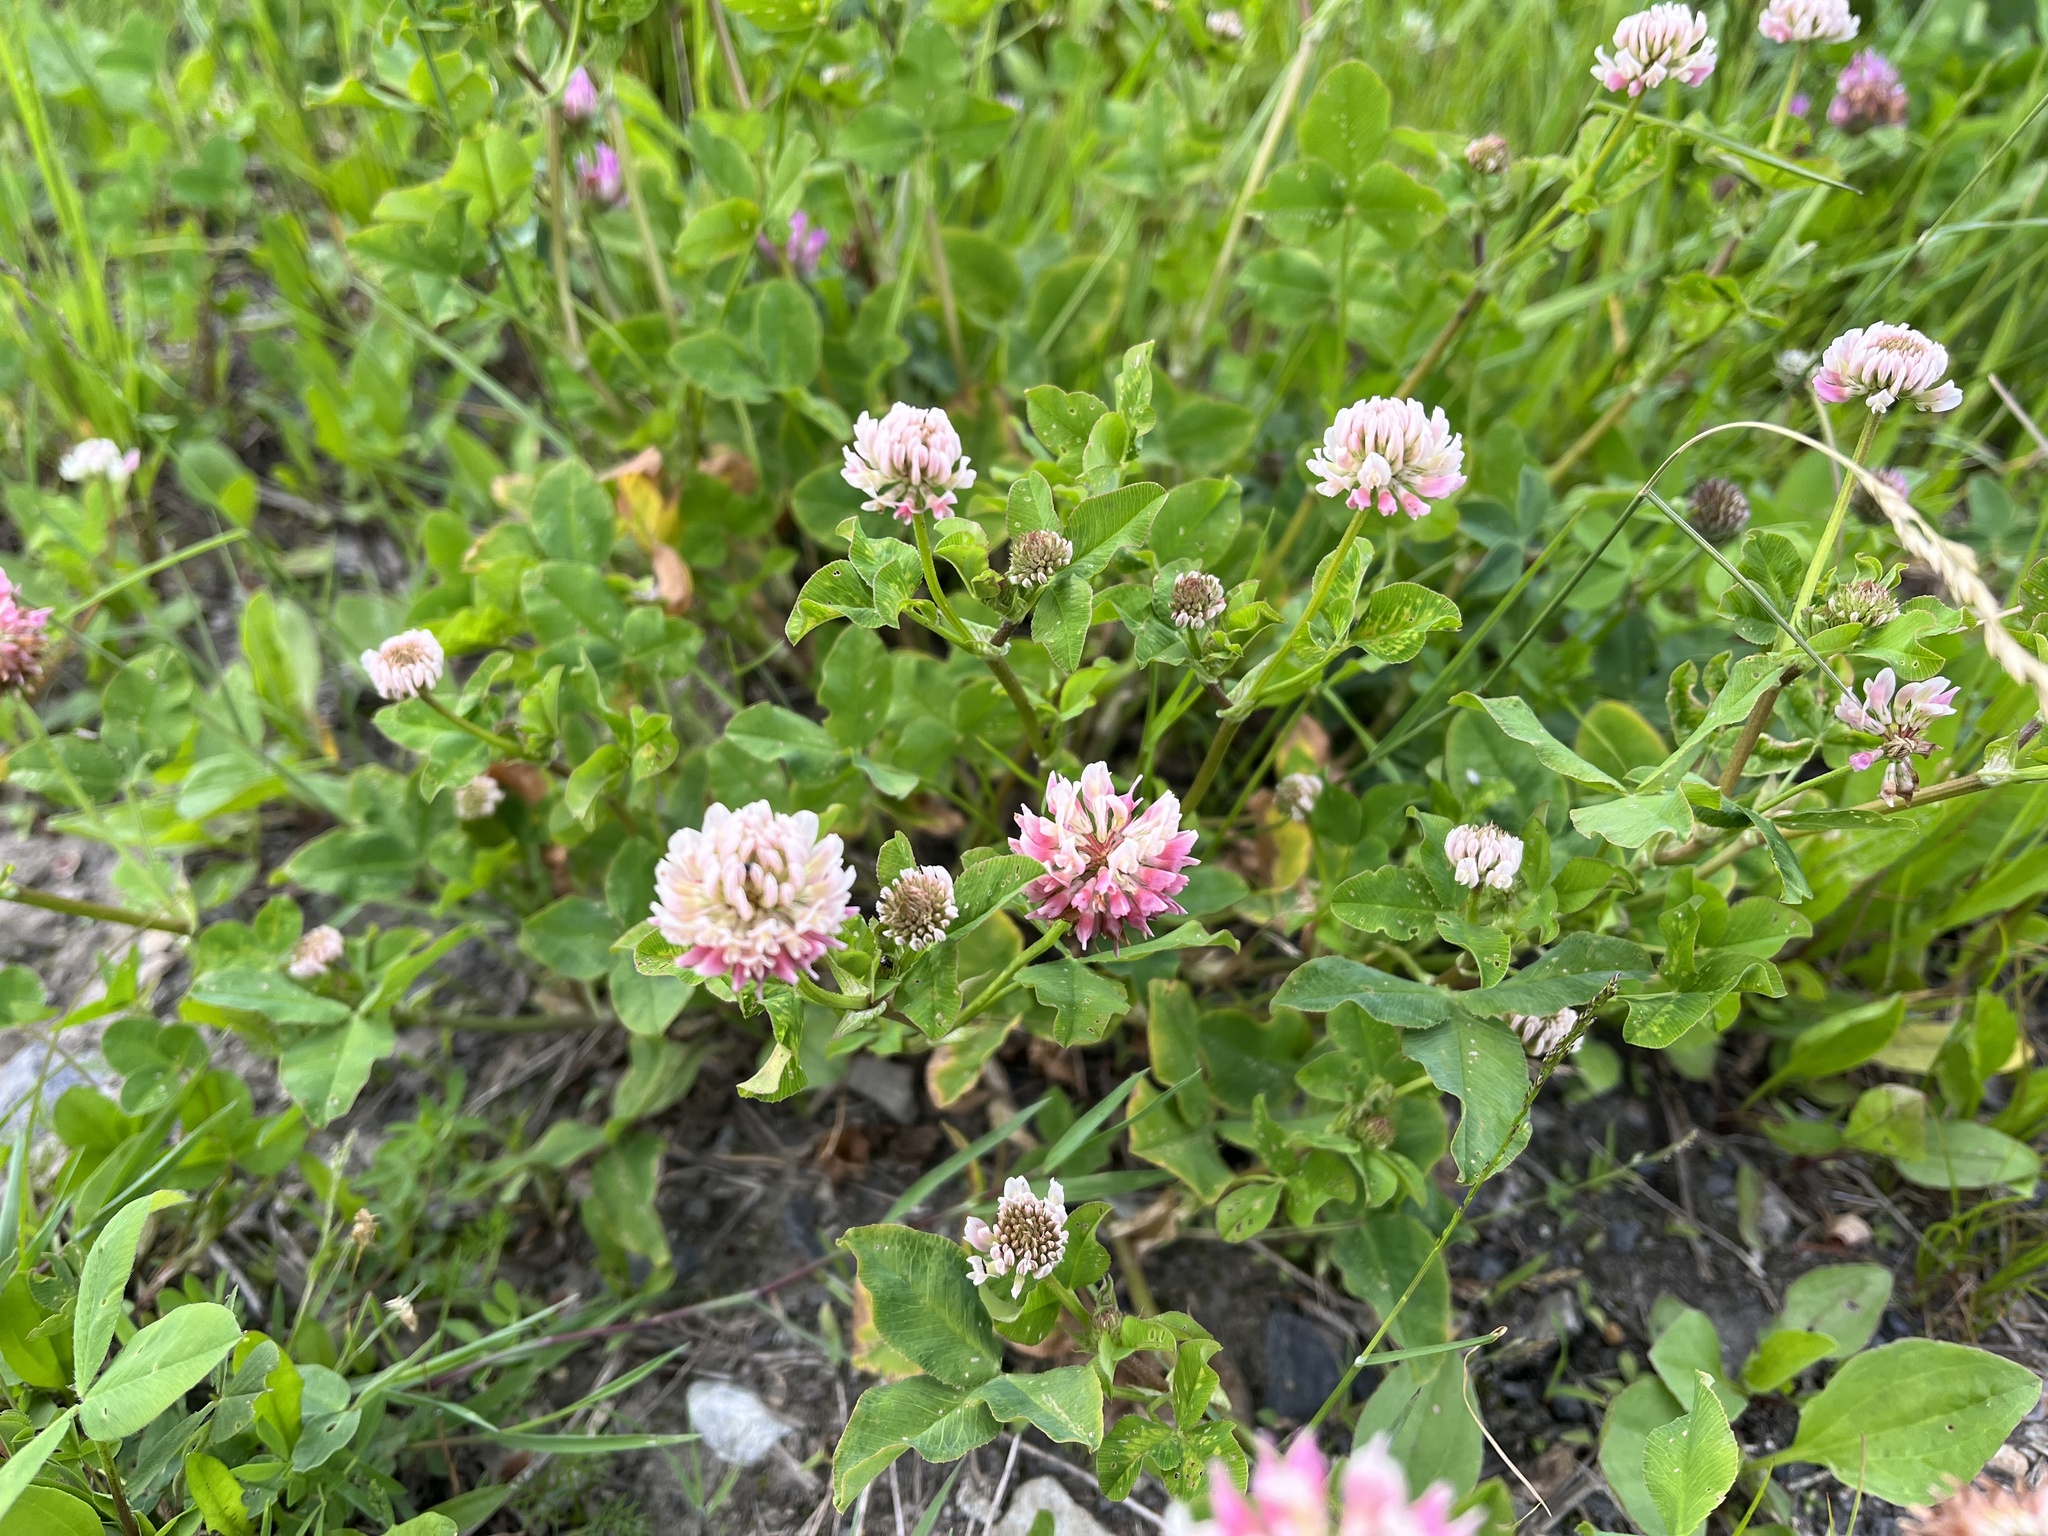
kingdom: Plantae
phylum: Tracheophyta
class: Magnoliopsida
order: Fabales
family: Fabaceae
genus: Trifolium
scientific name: Trifolium hybridum
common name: Alsike clover
